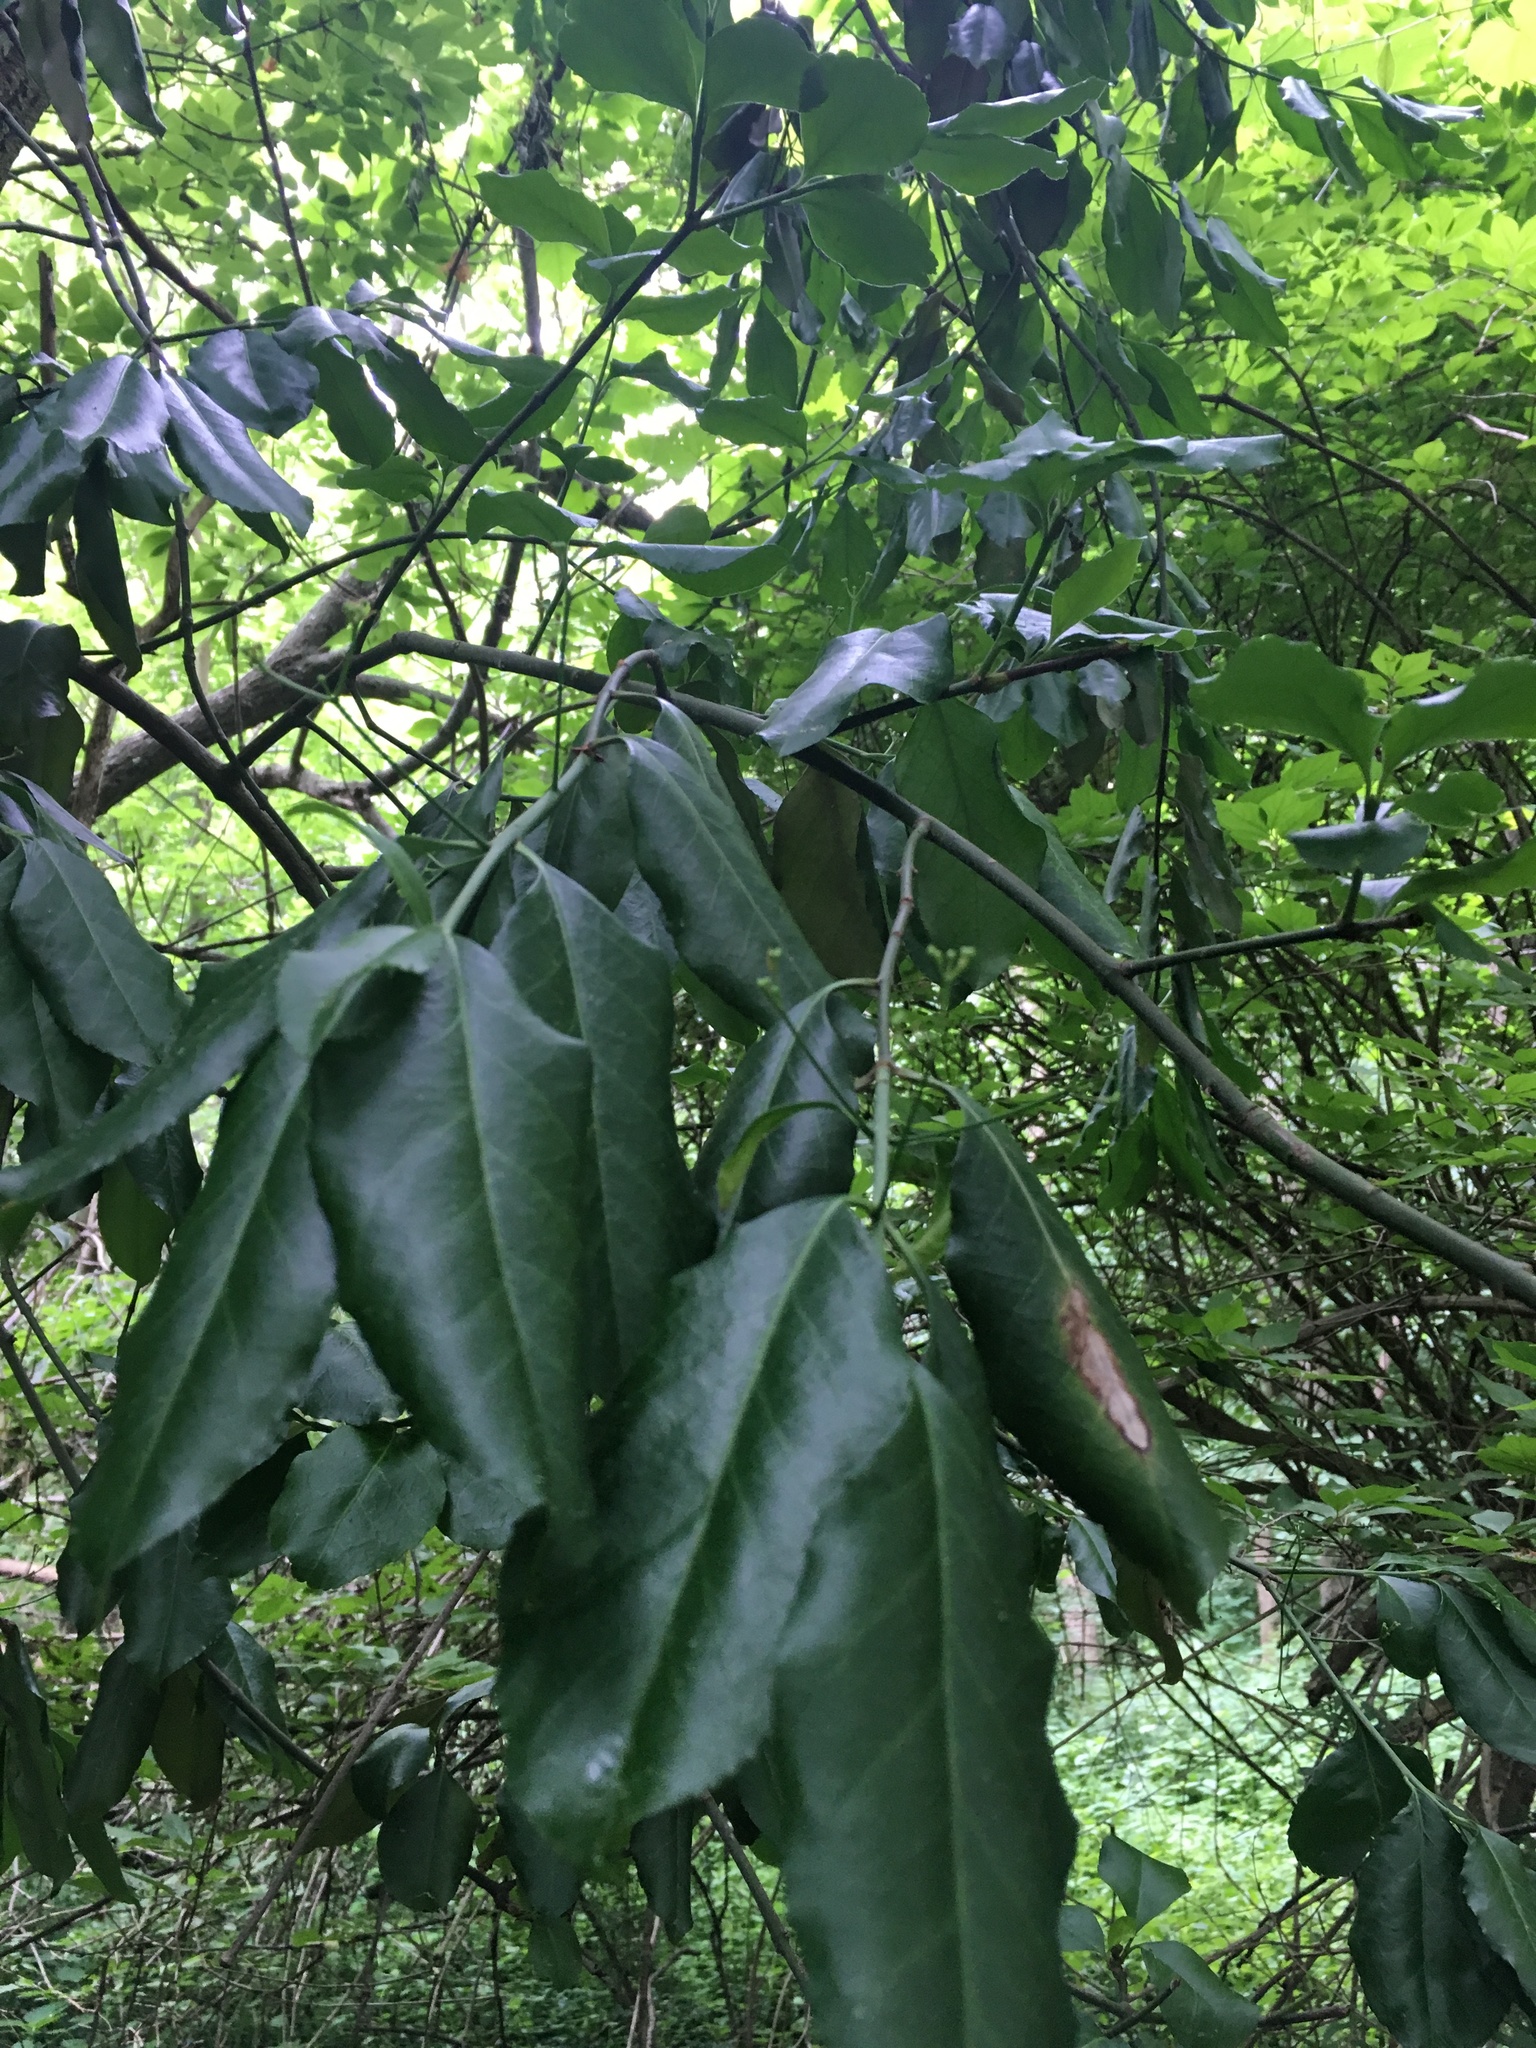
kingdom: Plantae
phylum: Tracheophyta
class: Magnoliopsida
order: Celastrales
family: Celastraceae
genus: Euonymus
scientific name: Euonymus fortunei
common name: Climbing euonymus
